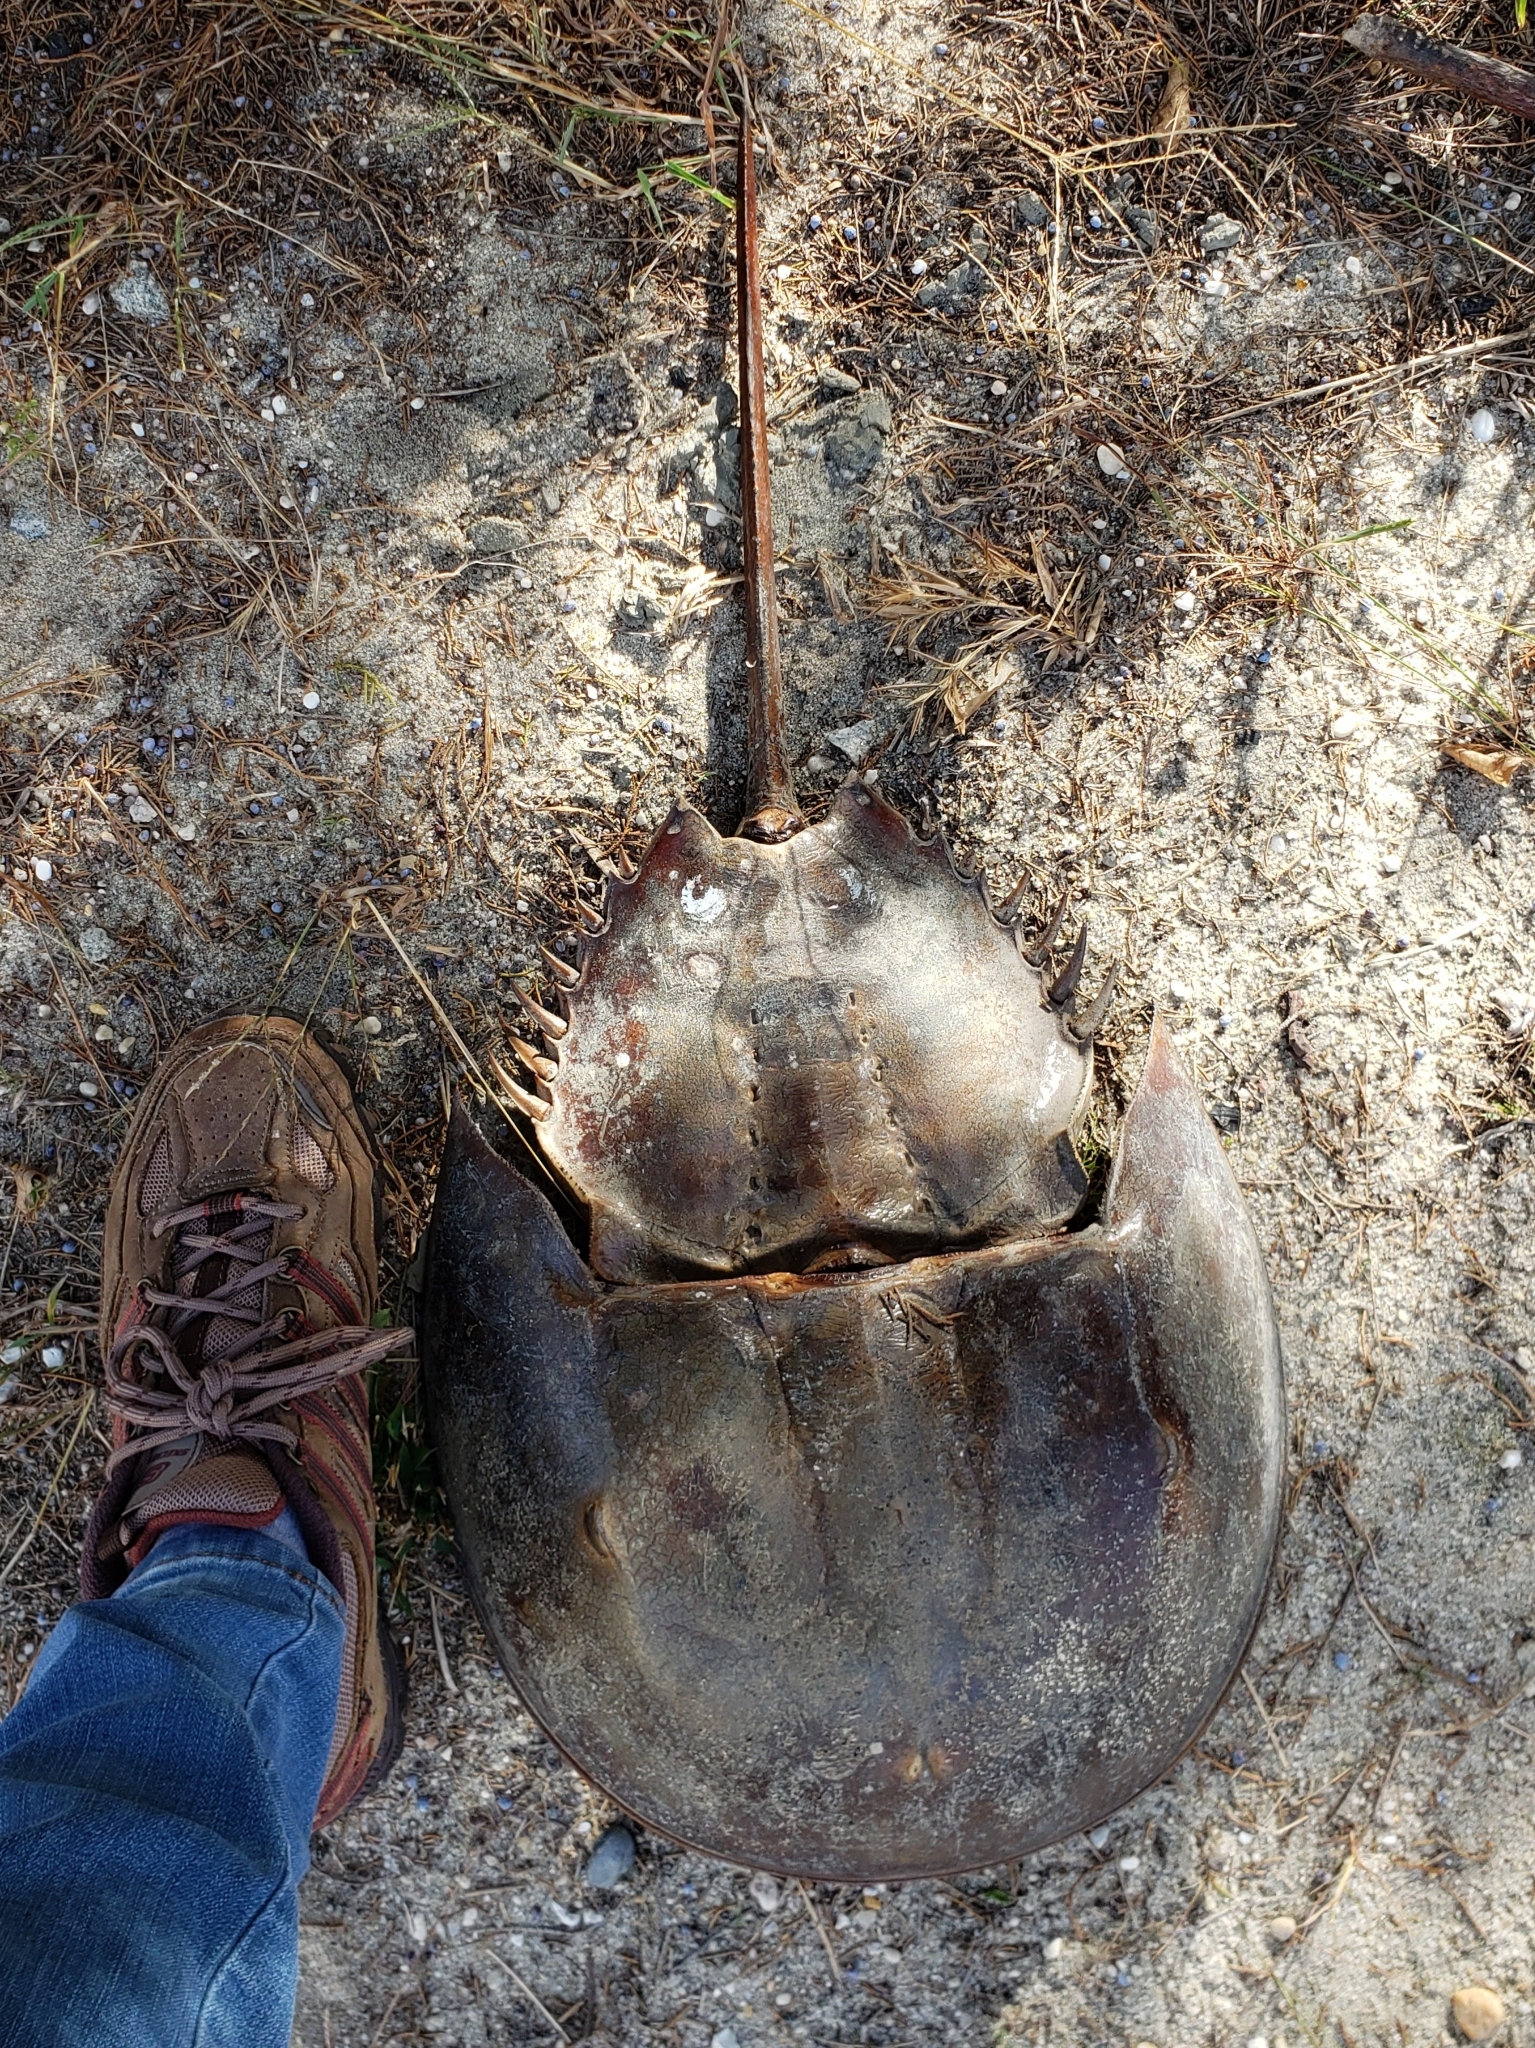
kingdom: Animalia
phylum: Arthropoda
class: Merostomata
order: Xiphosurida
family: Limulidae
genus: Limulus
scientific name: Limulus polyphemus
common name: Horseshoe crab
